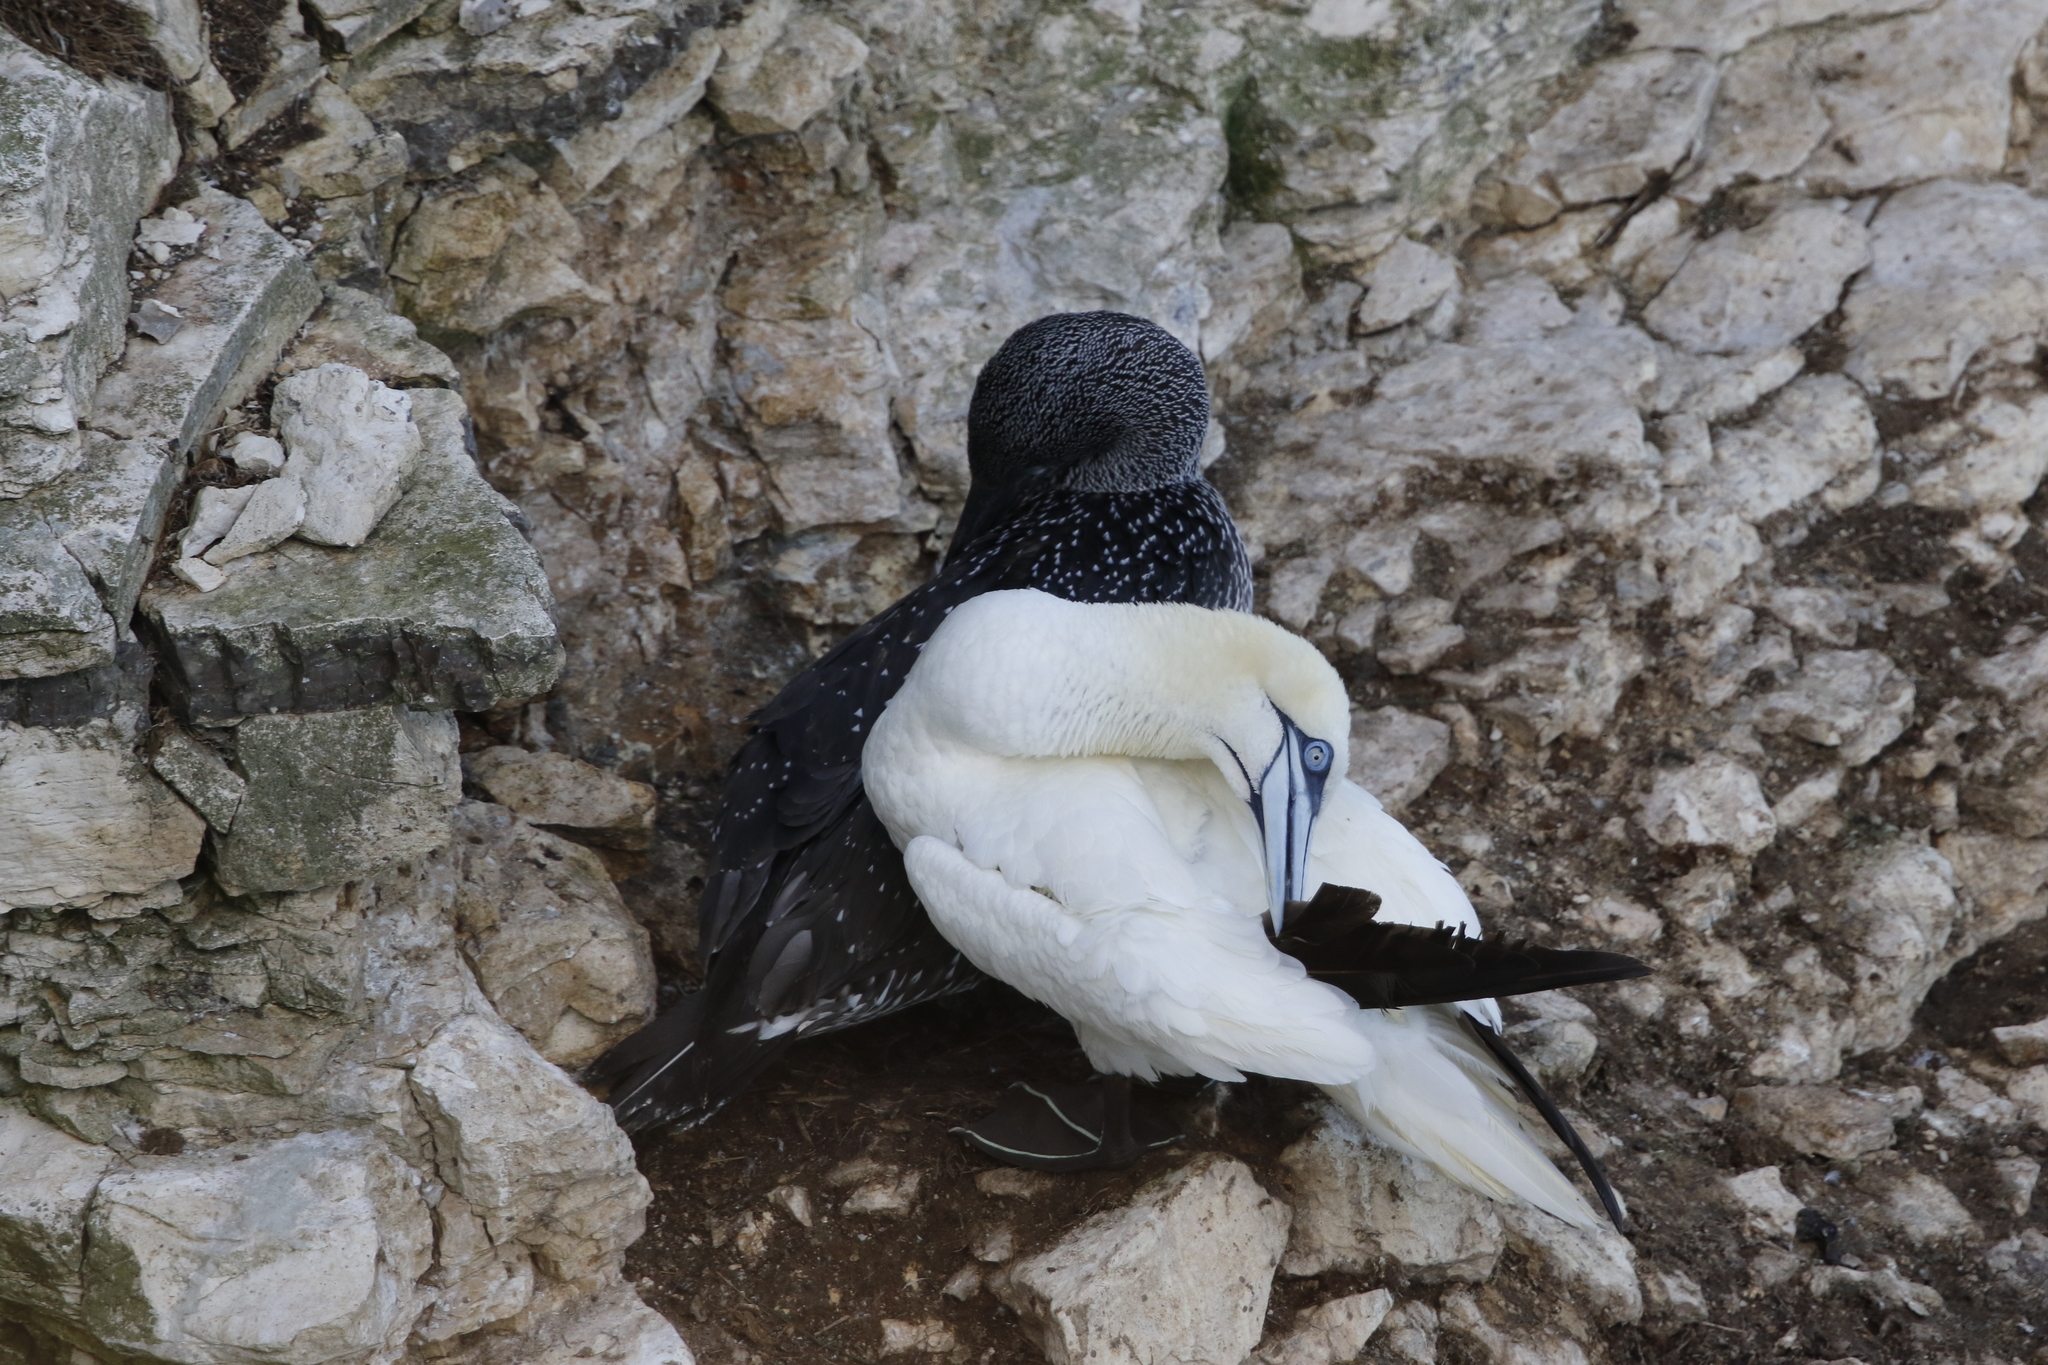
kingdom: Animalia
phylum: Chordata
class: Aves
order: Suliformes
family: Sulidae
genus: Morus
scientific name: Morus bassanus
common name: Northern gannet
